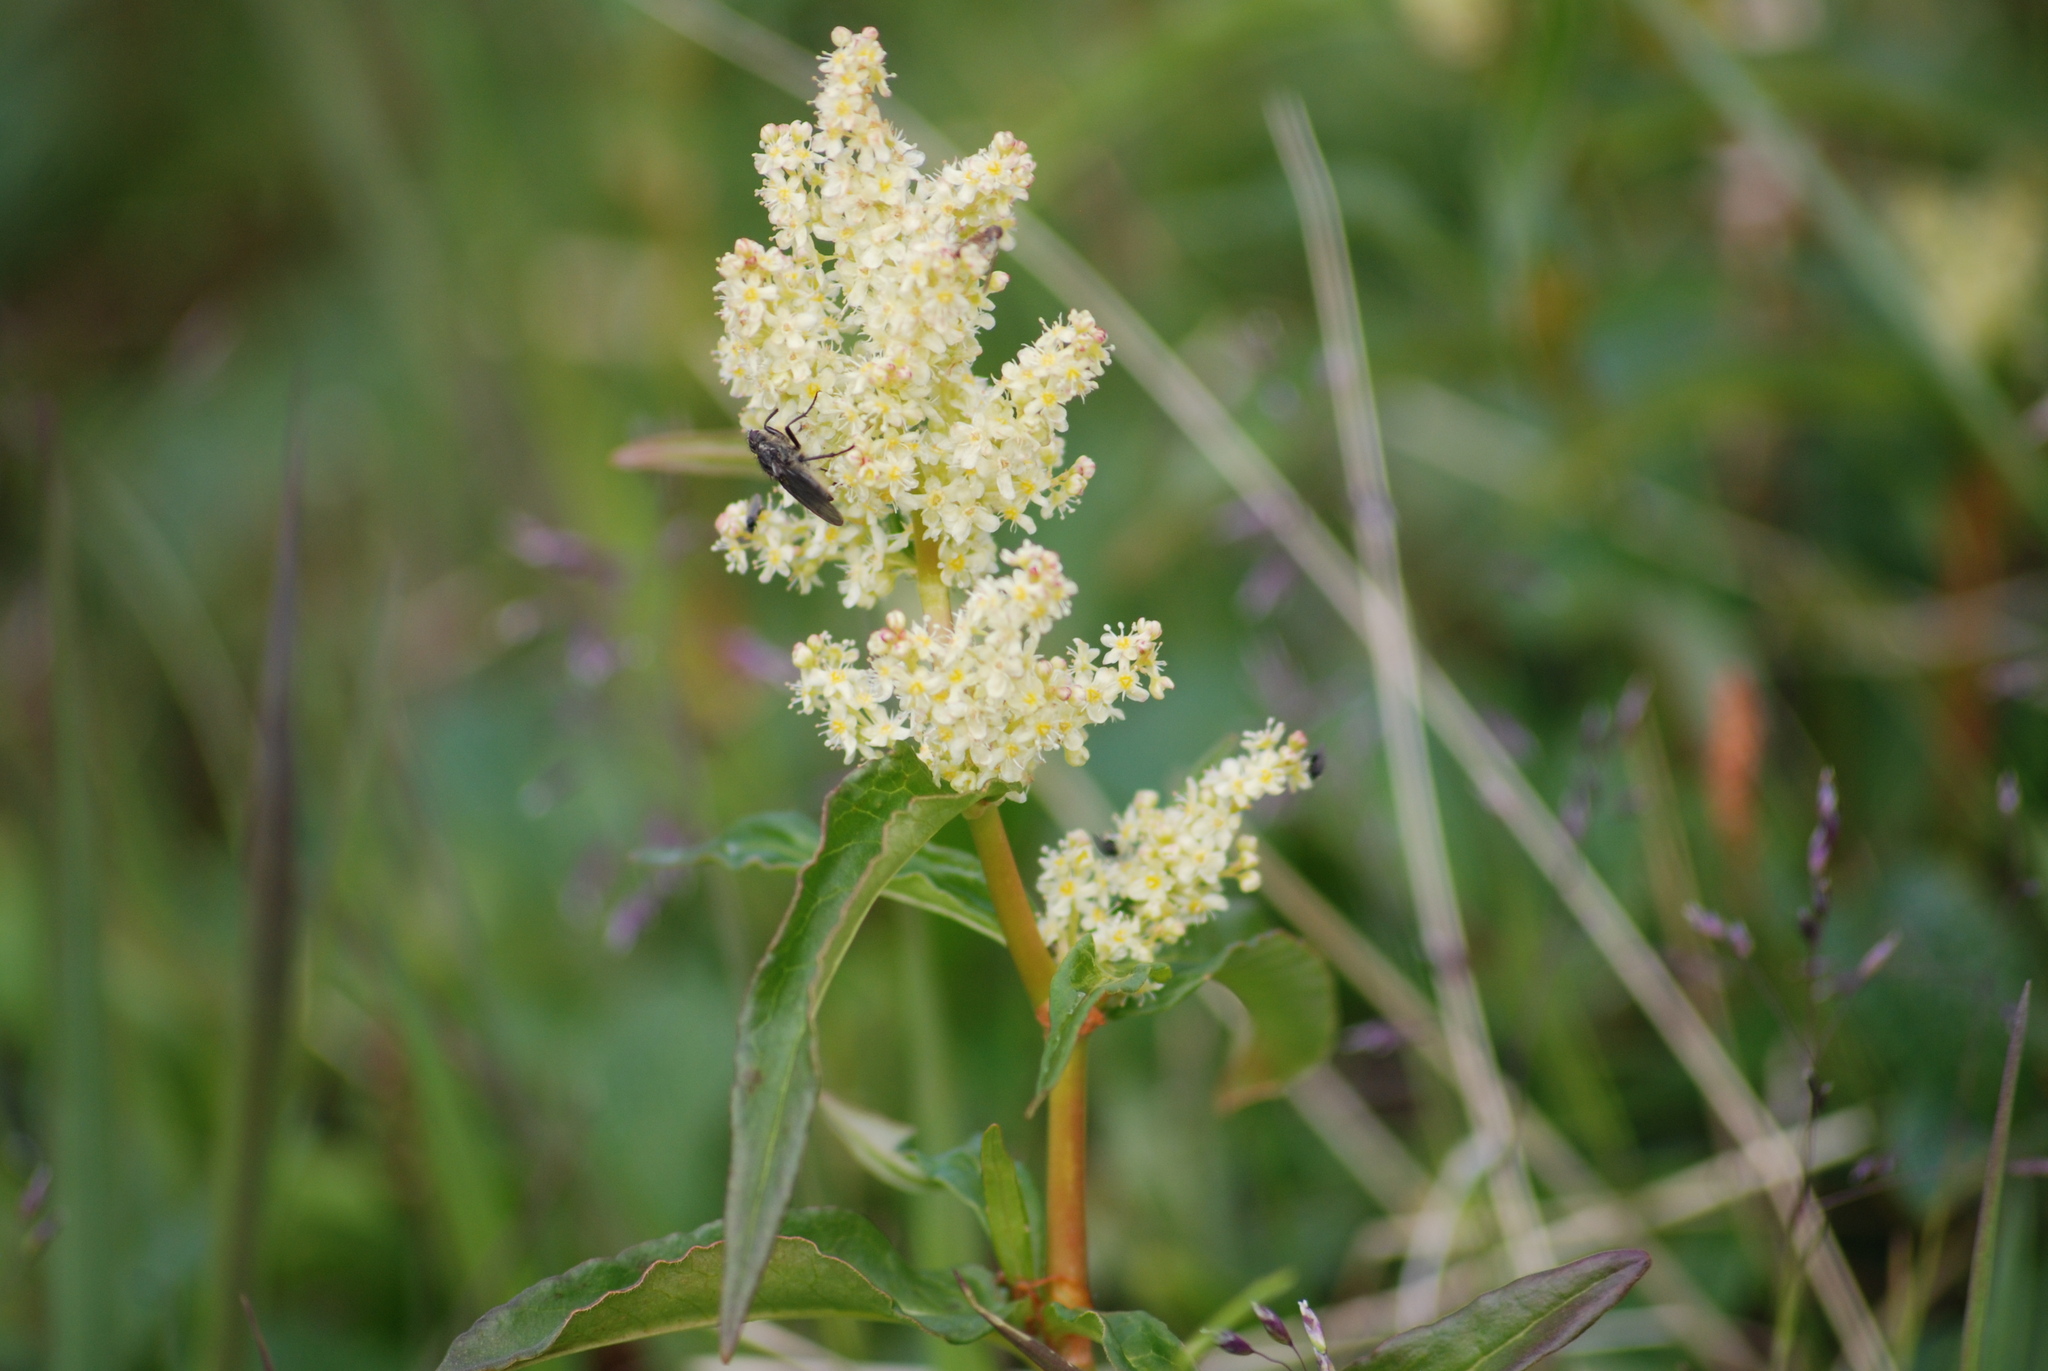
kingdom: Plantae
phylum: Tracheophyta
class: Magnoliopsida
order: Caryophyllales
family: Polygonaceae
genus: Koenigia
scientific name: Koenigia tripterocarpa
